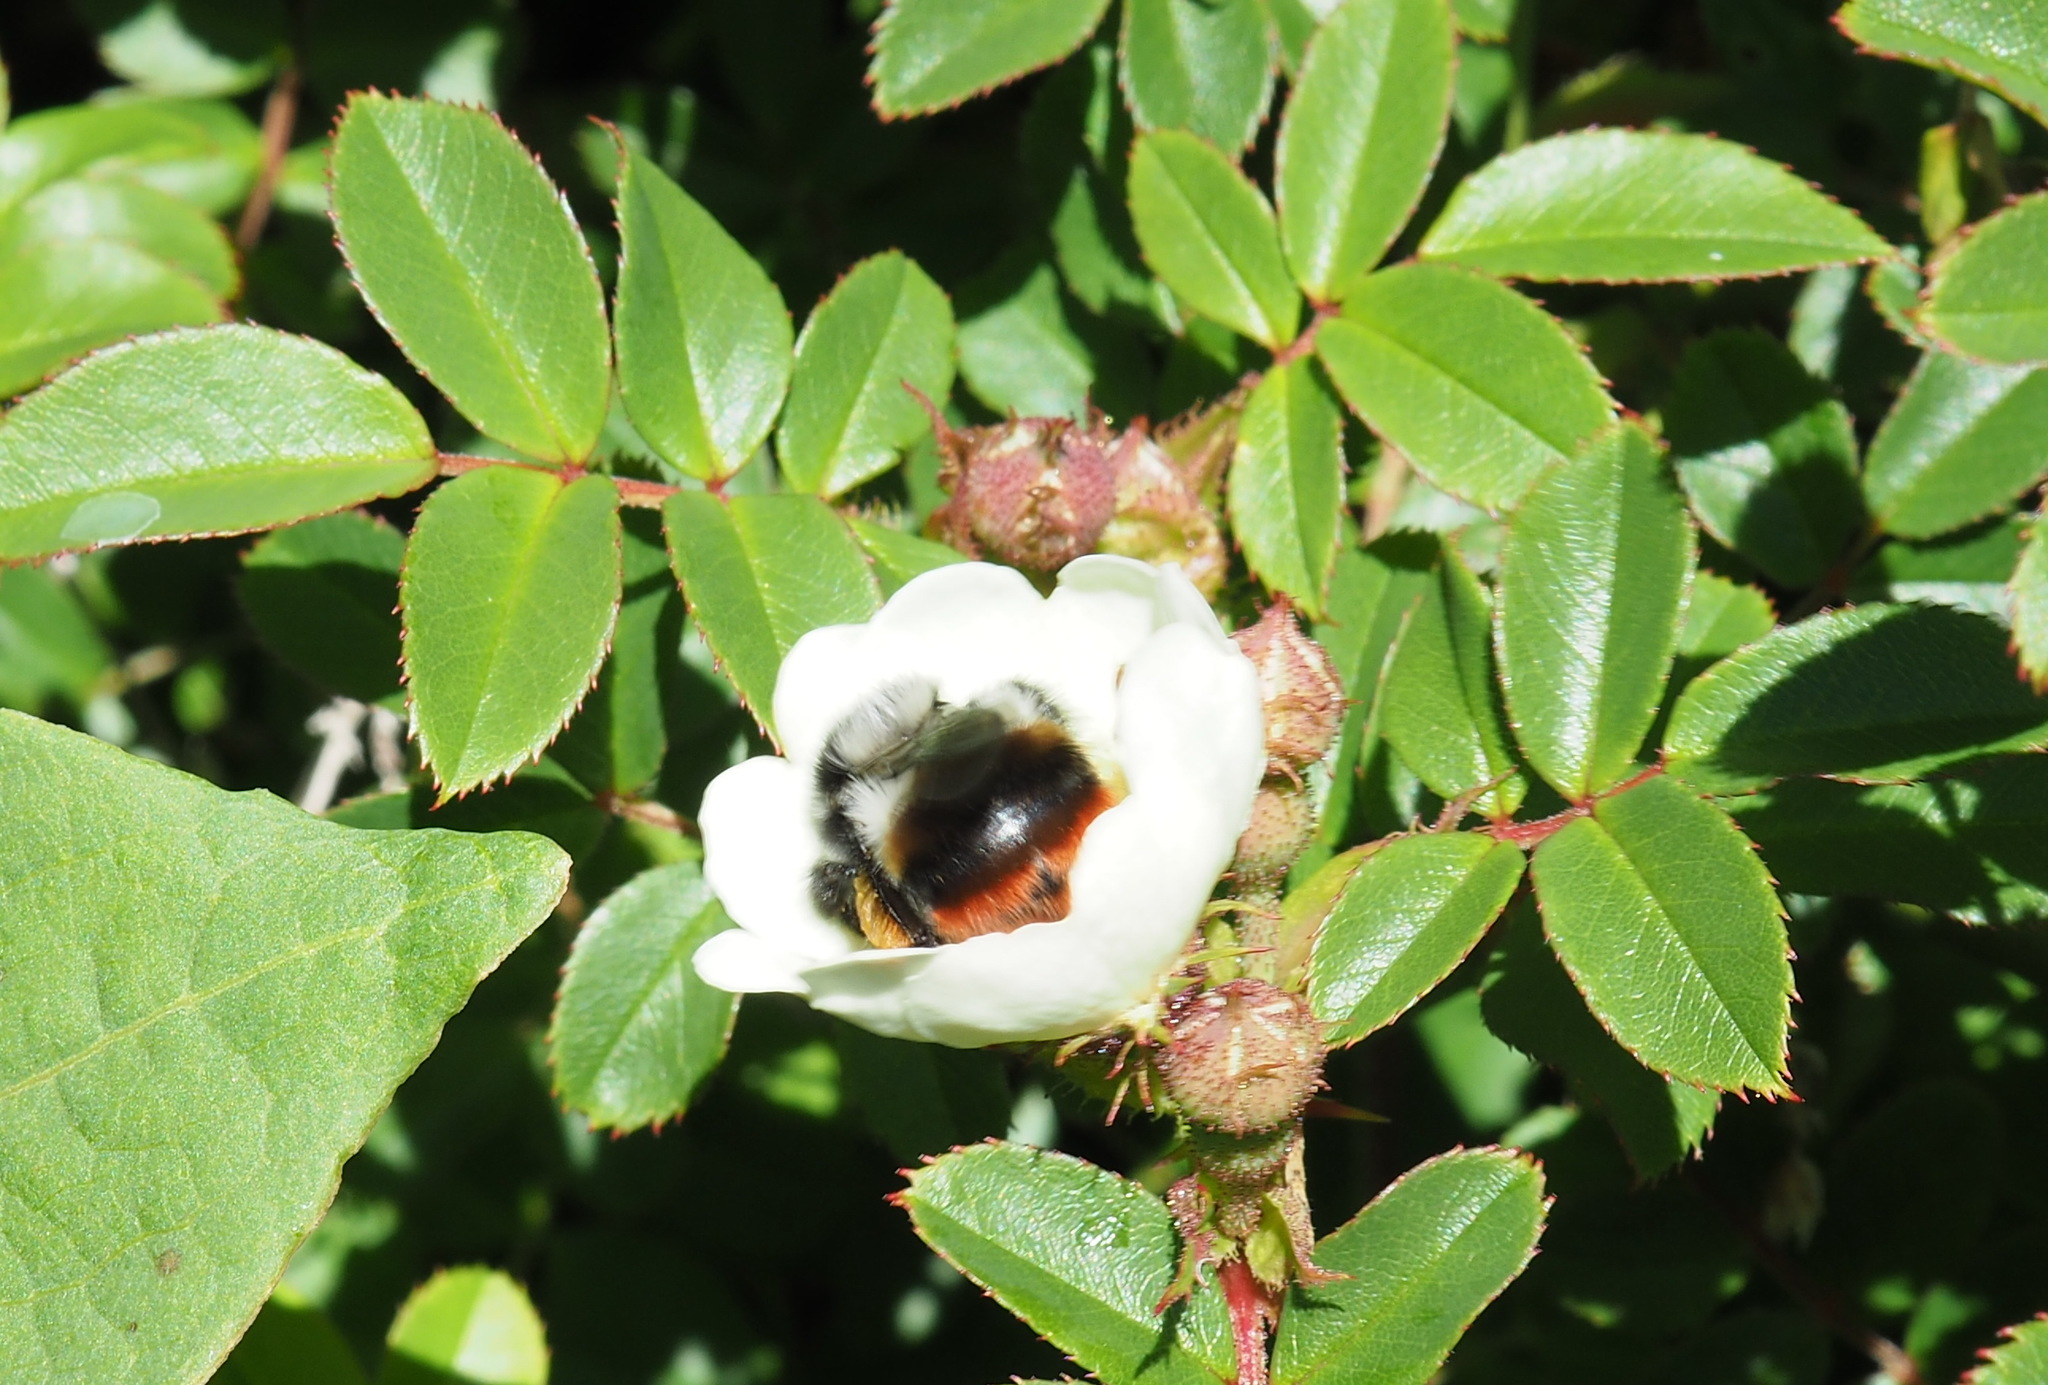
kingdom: Plantae
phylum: Tracheophyta
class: Magnoliopsida
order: Rosales
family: Rosaceae
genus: Rosa
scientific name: Rosa transmorrisonensis
